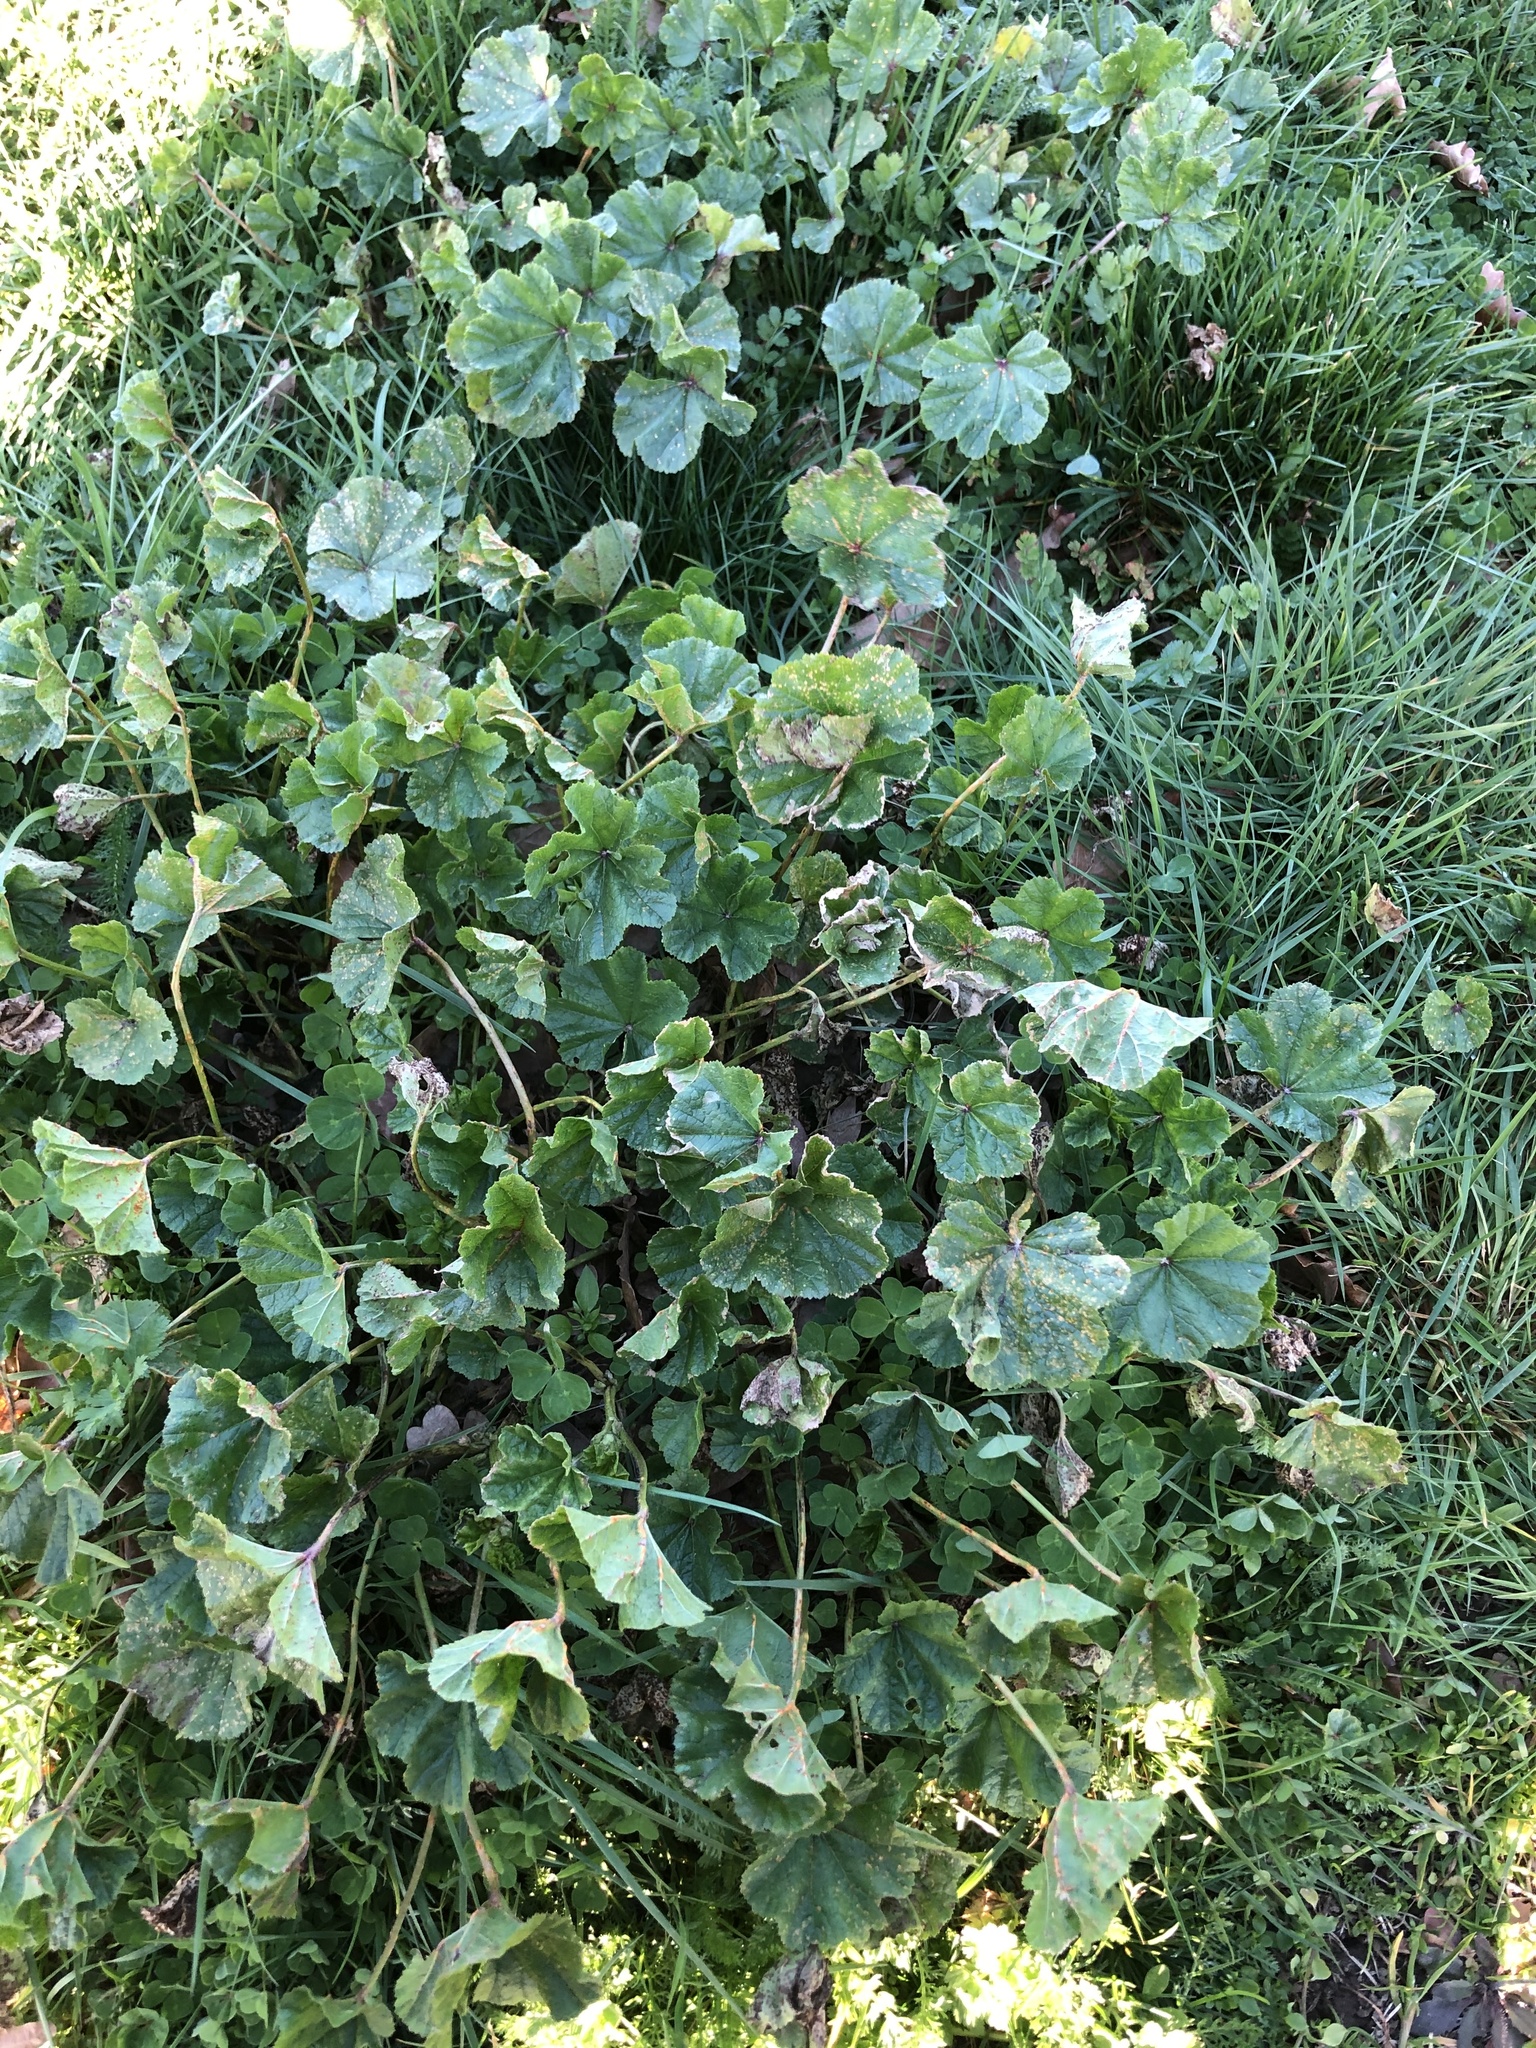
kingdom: Fungi
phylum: Basidiomycota
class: Pucciniomycetes
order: Pucciniales
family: Pucciniaceae
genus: Puccinia
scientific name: Puccinia malvacearum
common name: Hollyhock rust
